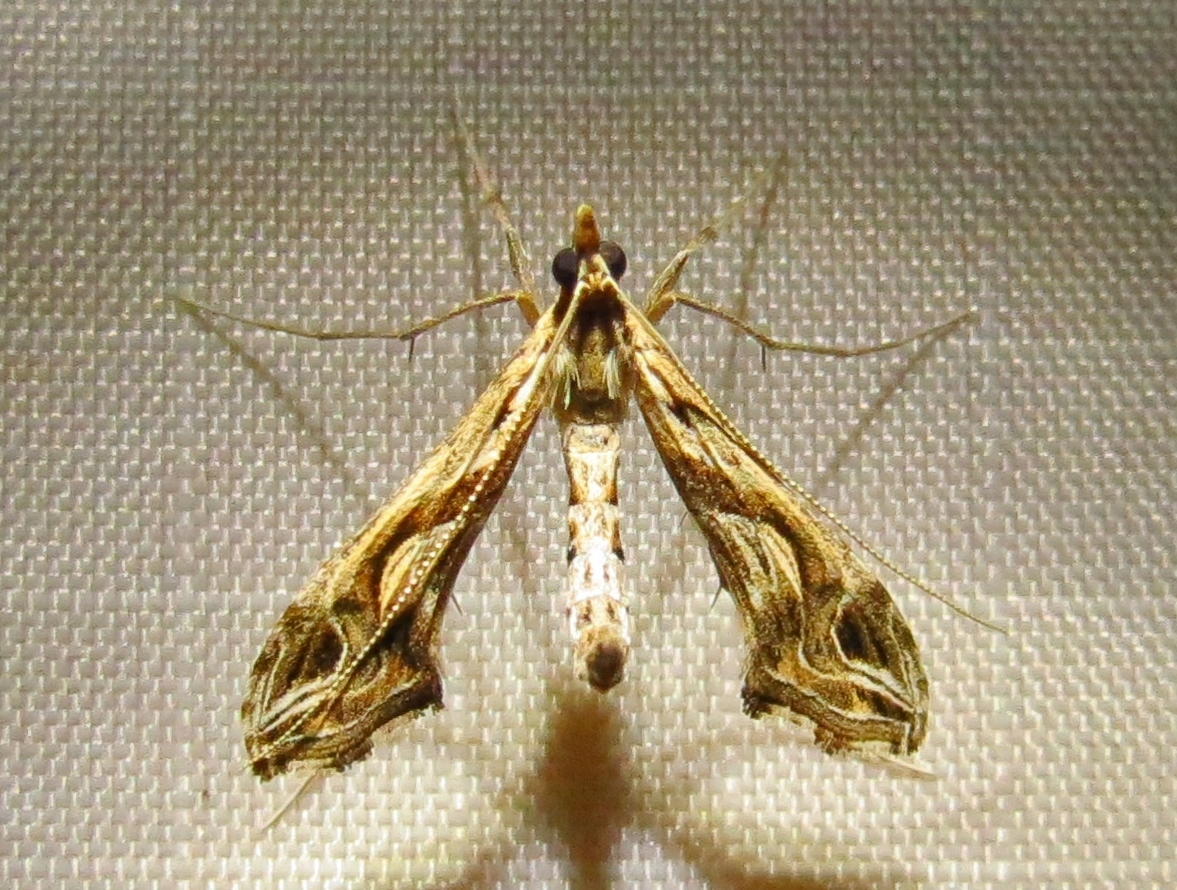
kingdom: Animalia
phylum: Arthropoda
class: Insecta
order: Lepidoptera
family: Crambidae
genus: Lineodes
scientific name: Lineodes integra
